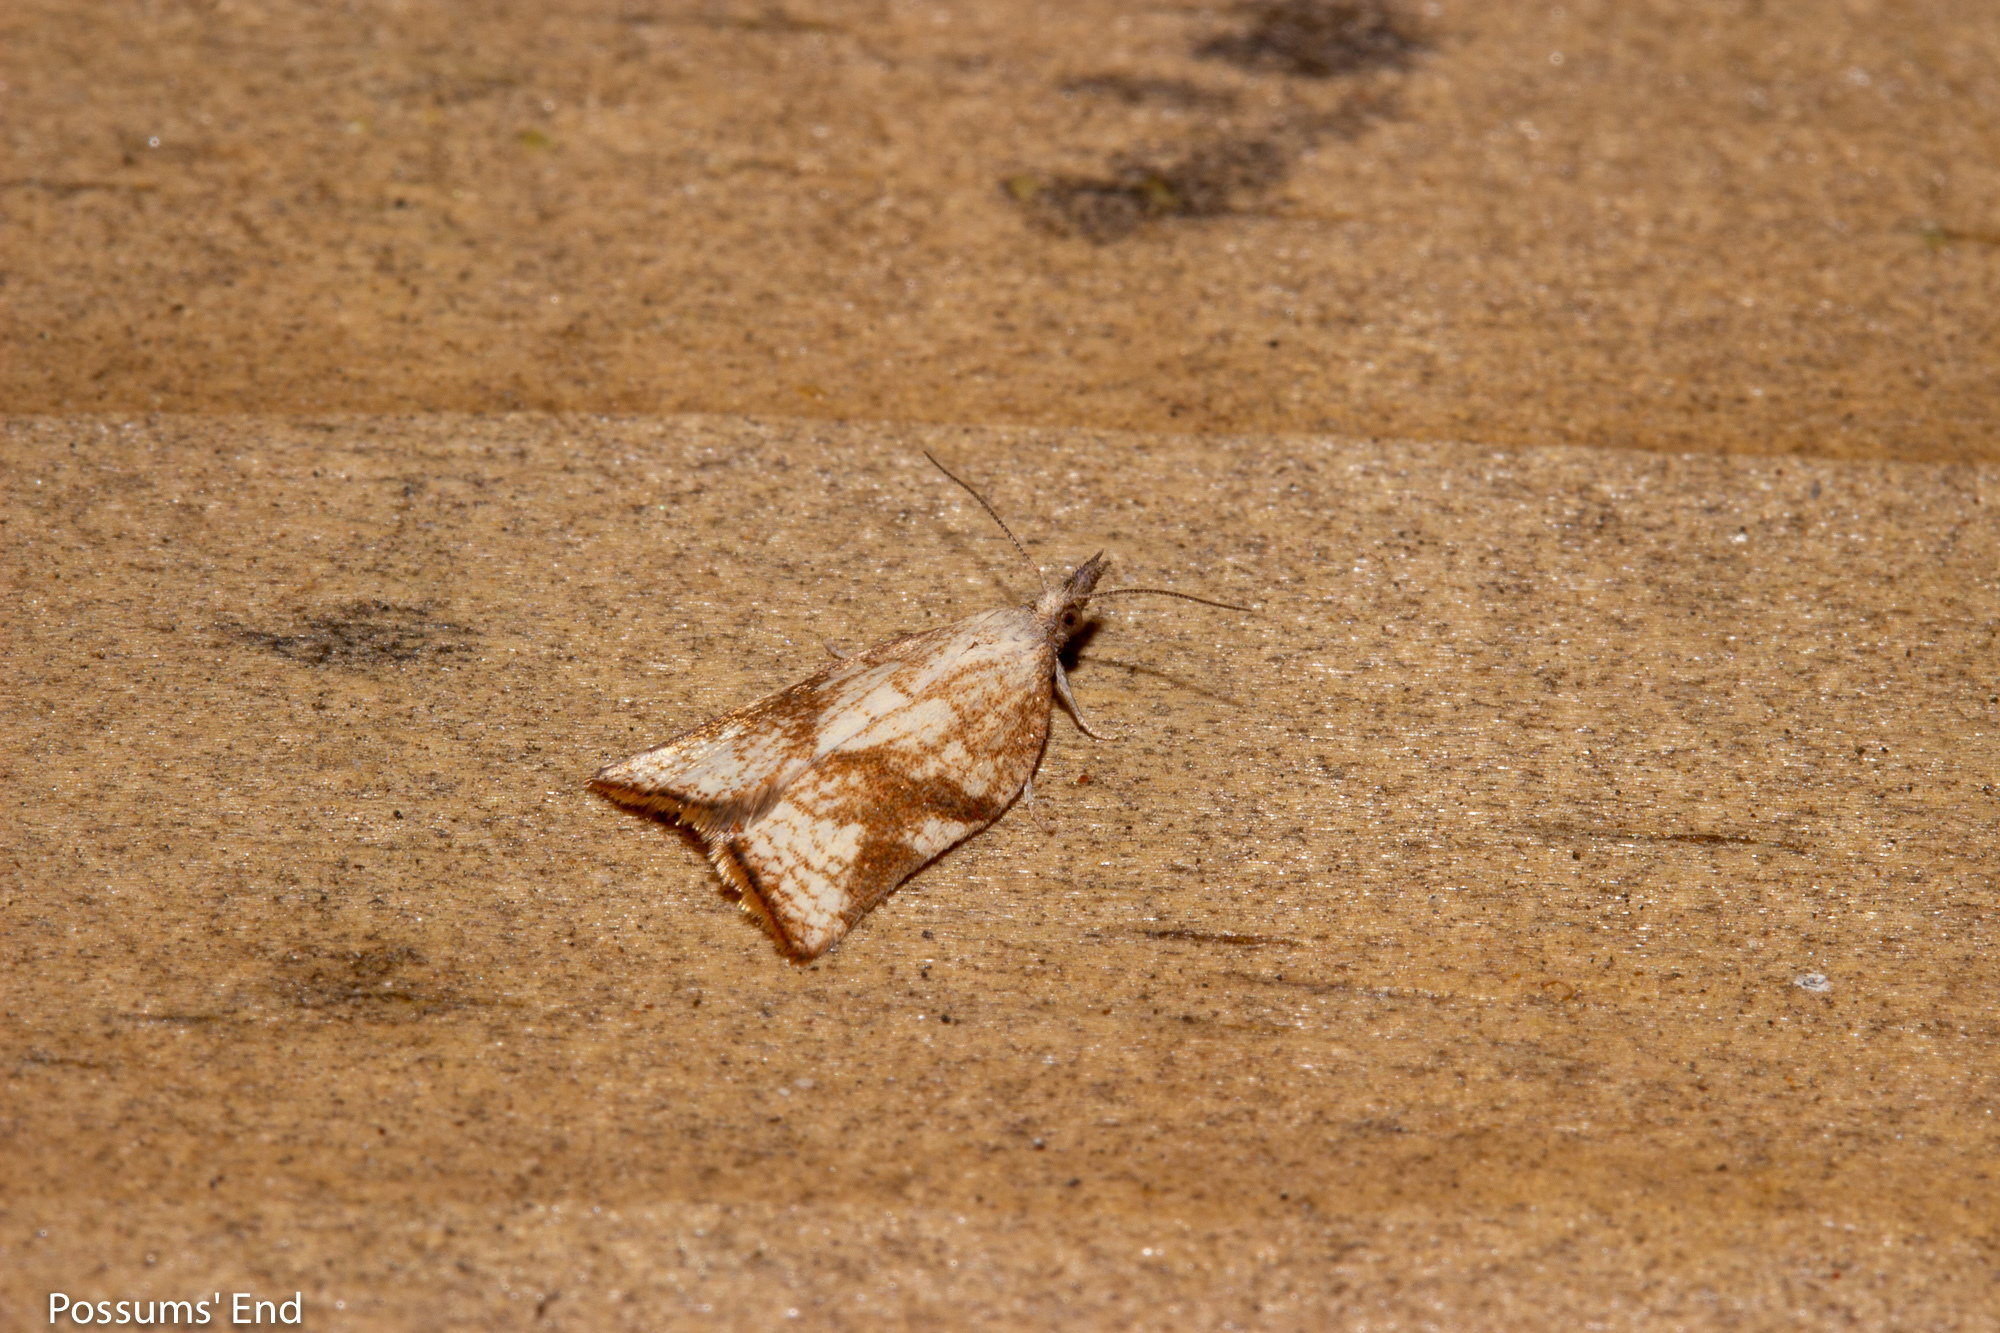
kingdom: Animalia
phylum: Arthropoda
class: Insecta
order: Lepidoptera
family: Tortricidae
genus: Catamacta
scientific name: Catamacta gavisana
